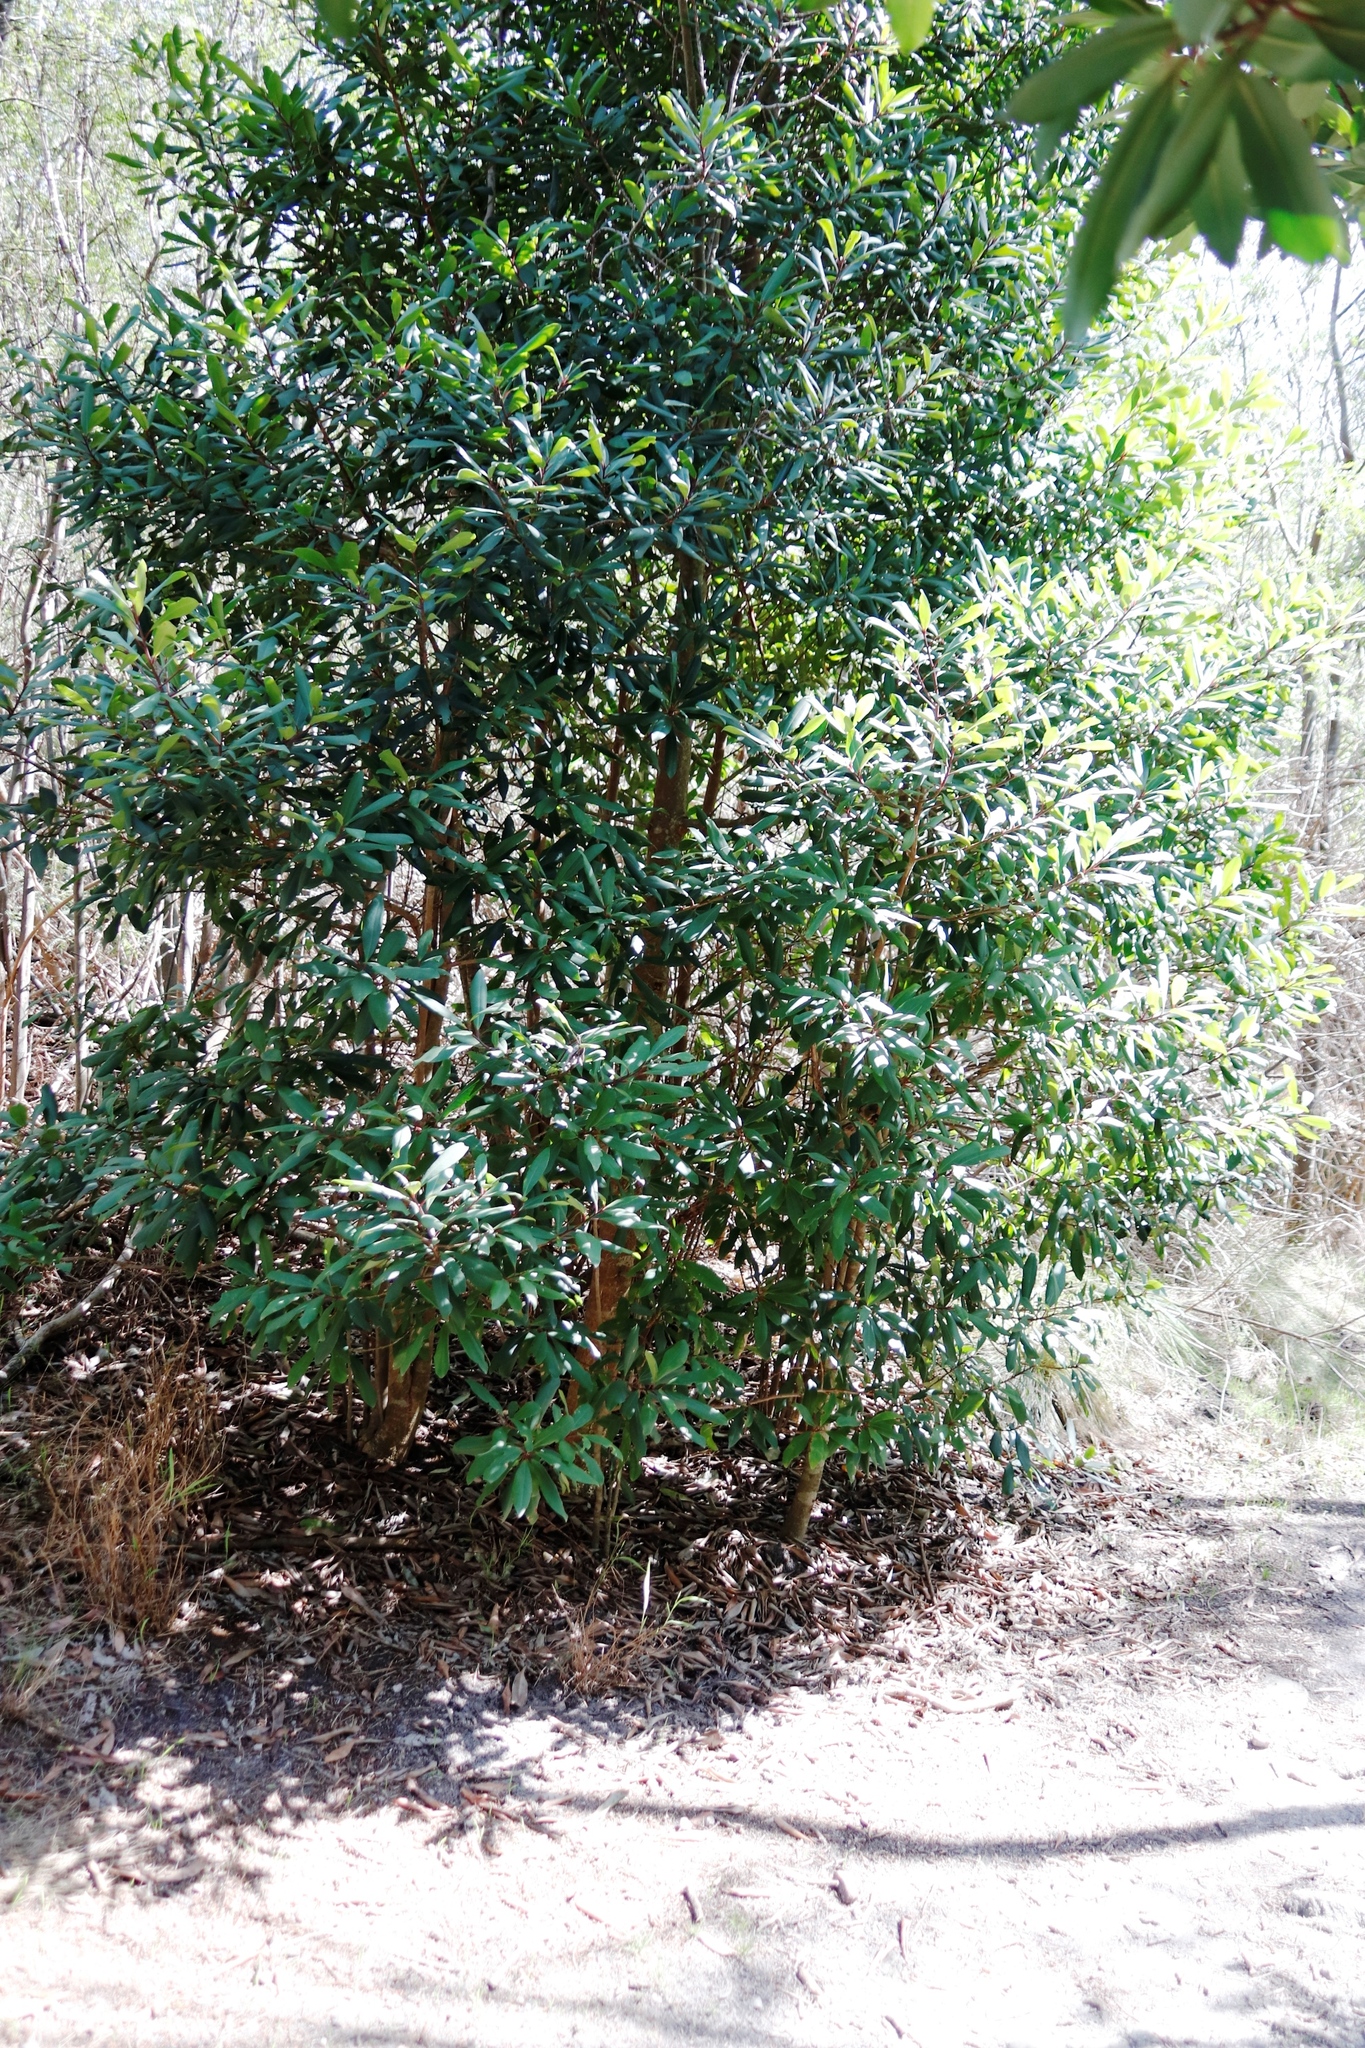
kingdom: Plantae
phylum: Tracheophyta
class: Magnoliopsida
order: Ericales
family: Primulaceae
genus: Myrsine
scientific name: Myrsine melanophloeos
